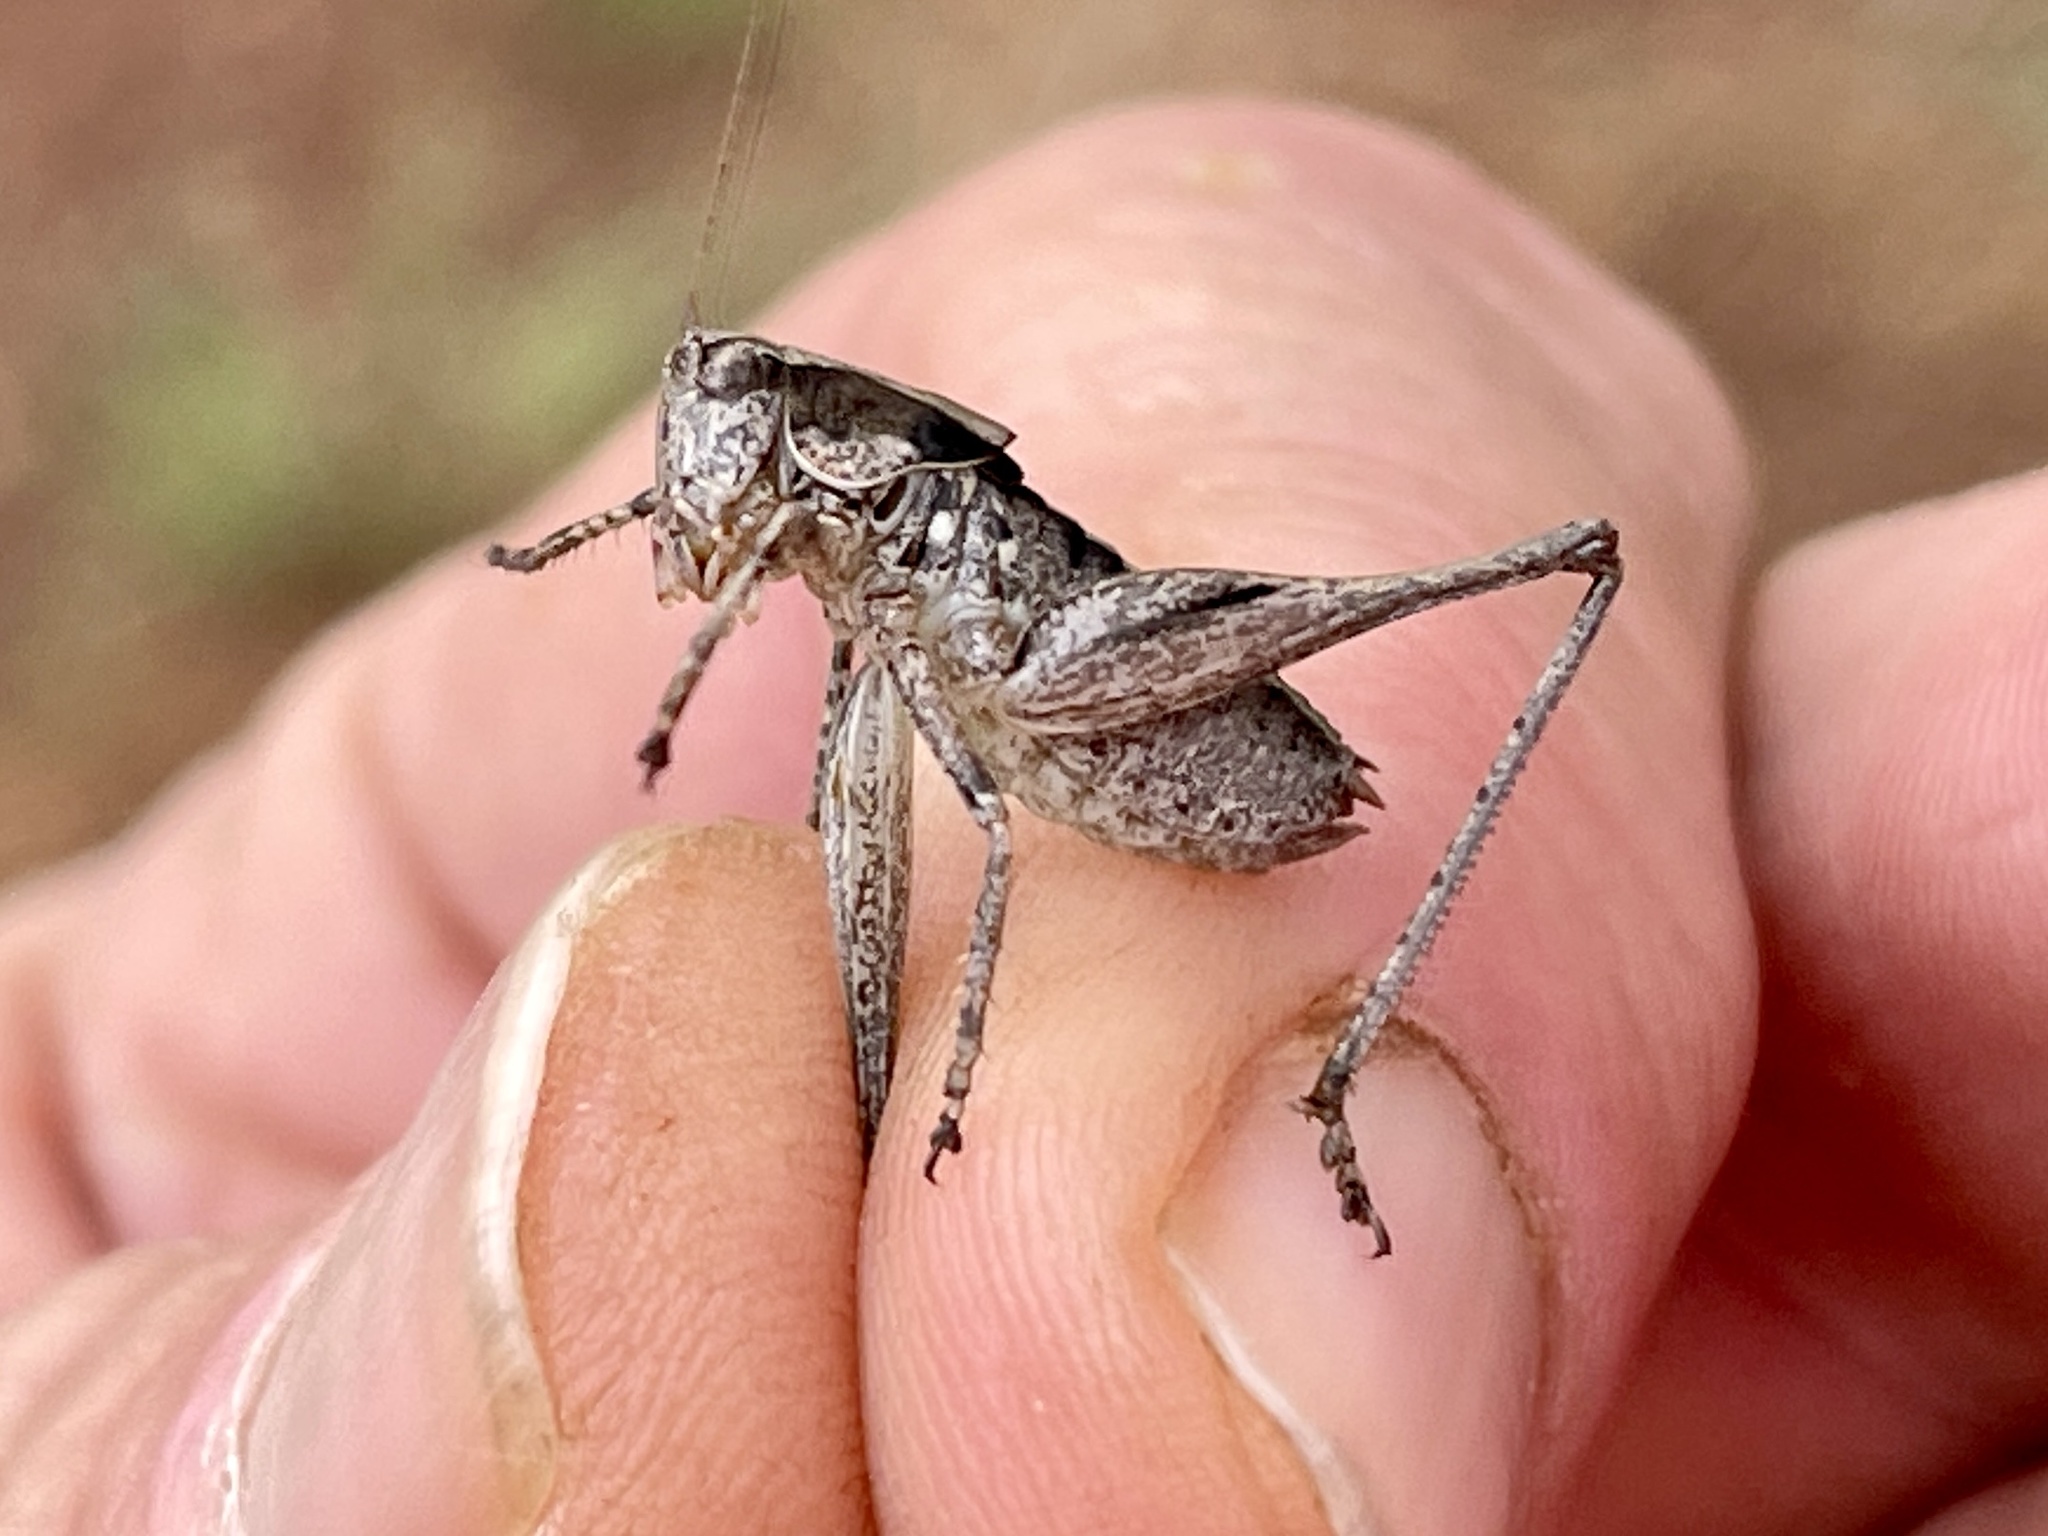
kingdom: Animalia
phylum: Arthropoda
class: Insecta
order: Orthoptera
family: Tettigoniidae
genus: Eremopedes
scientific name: Eremopedes ephippiatus
